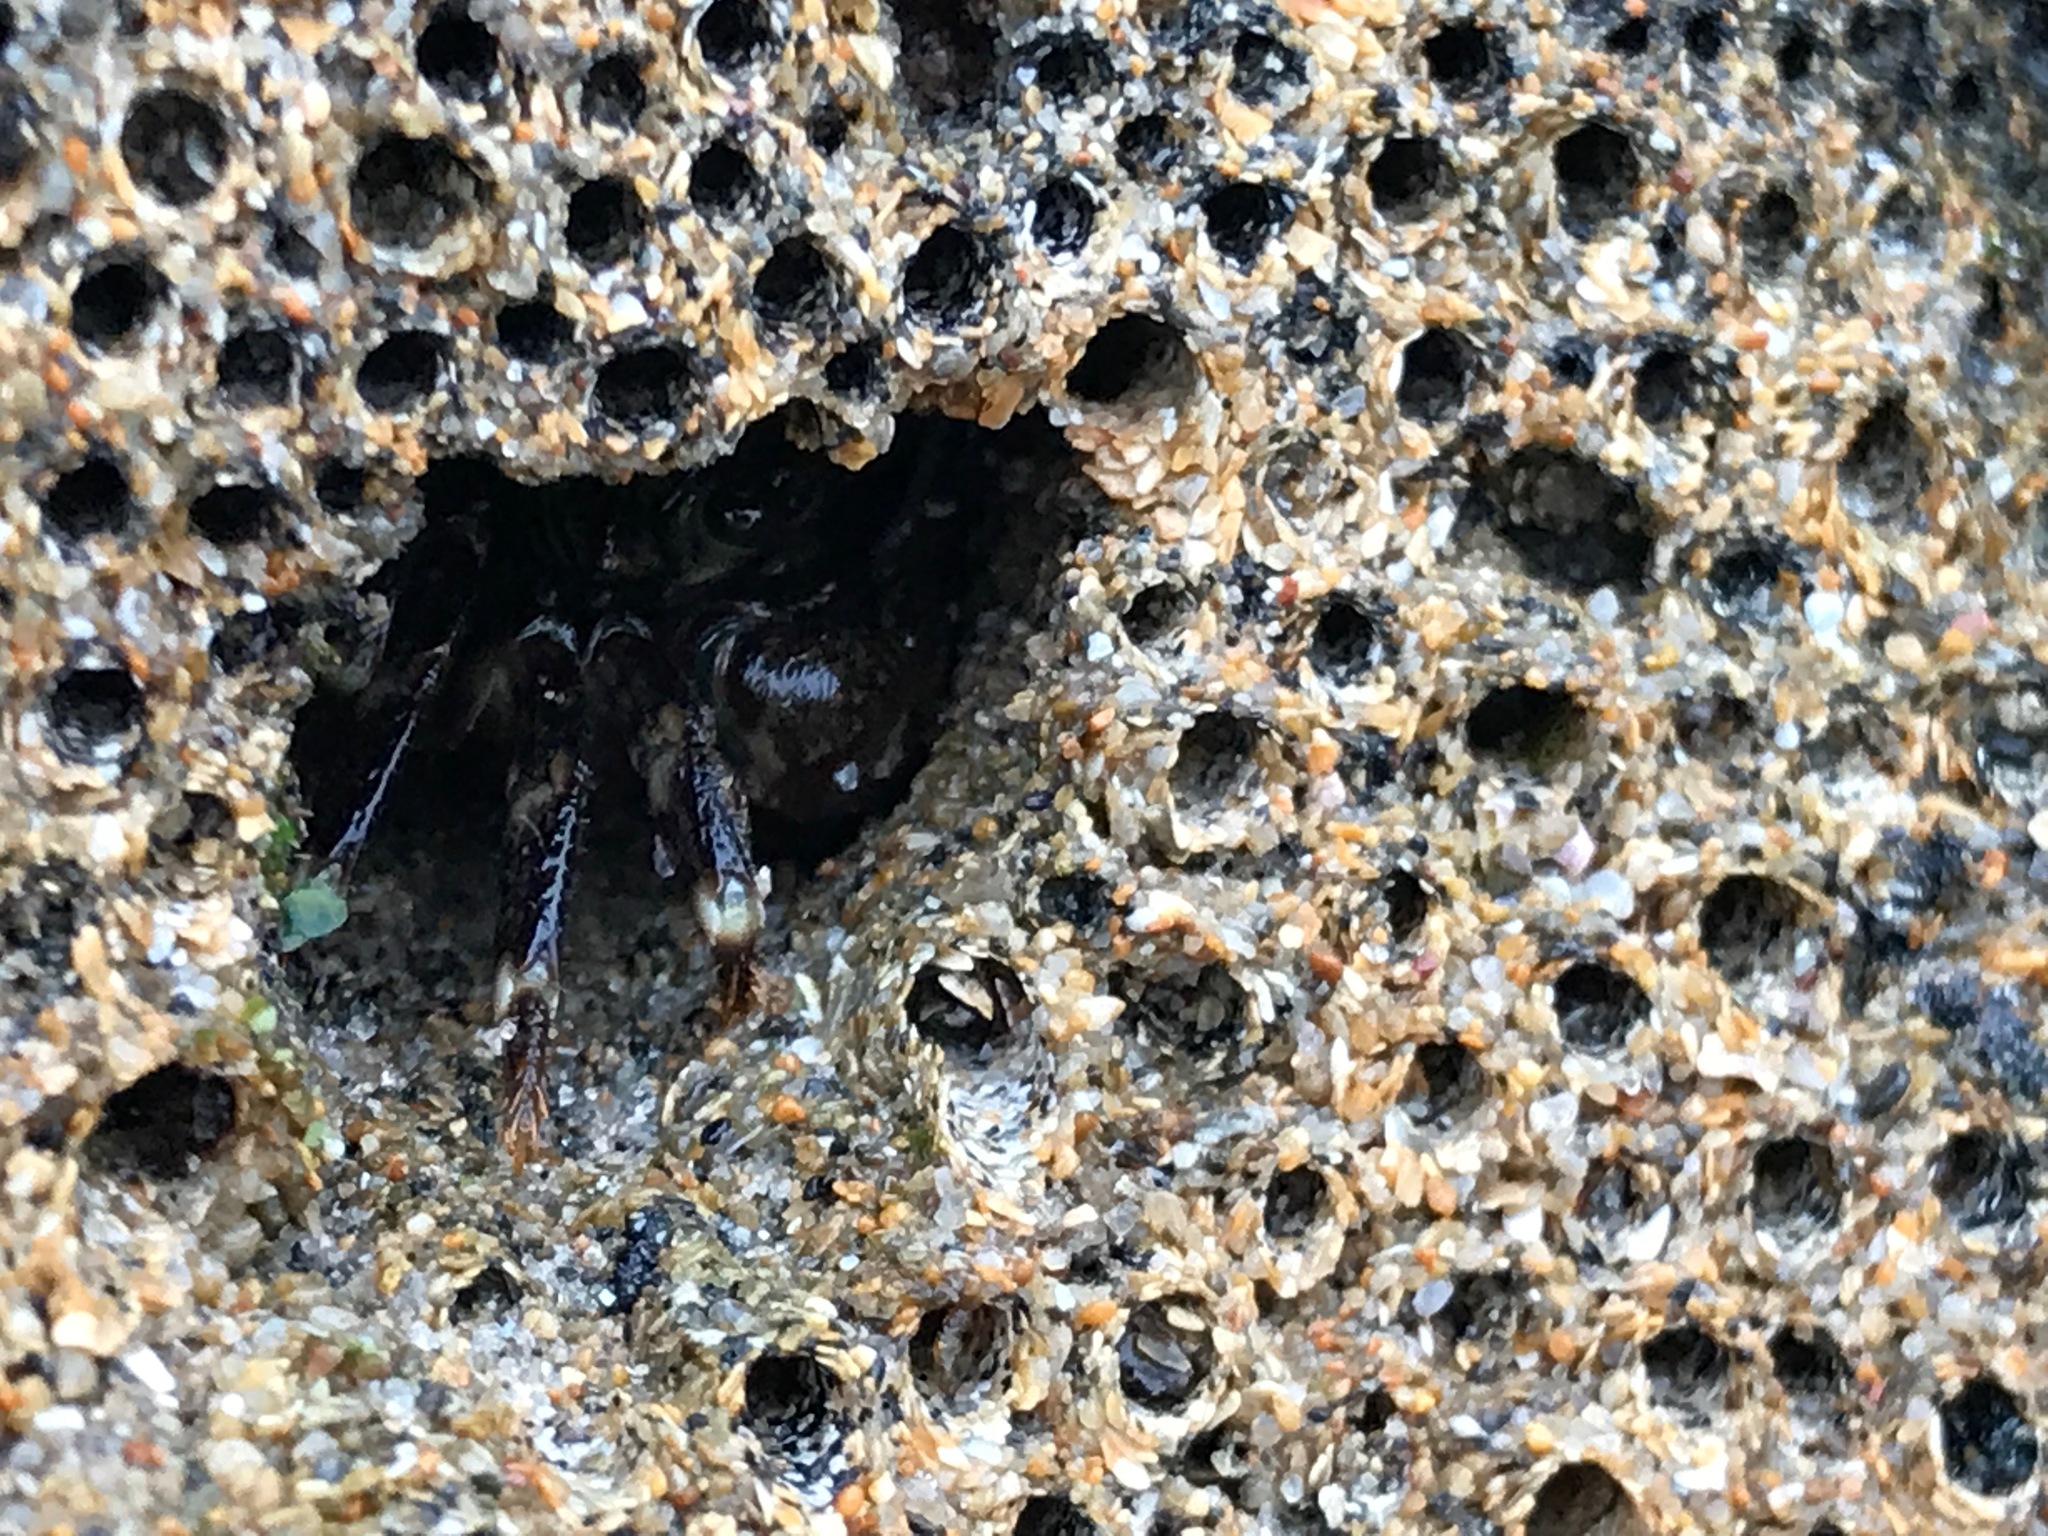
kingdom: Animalia
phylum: Arthropoda
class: Malacostraca
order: Decapoda
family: Grapsidae
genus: Pachygrapsus
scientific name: Pachygrapsus crassipes
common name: Striped shore crab
